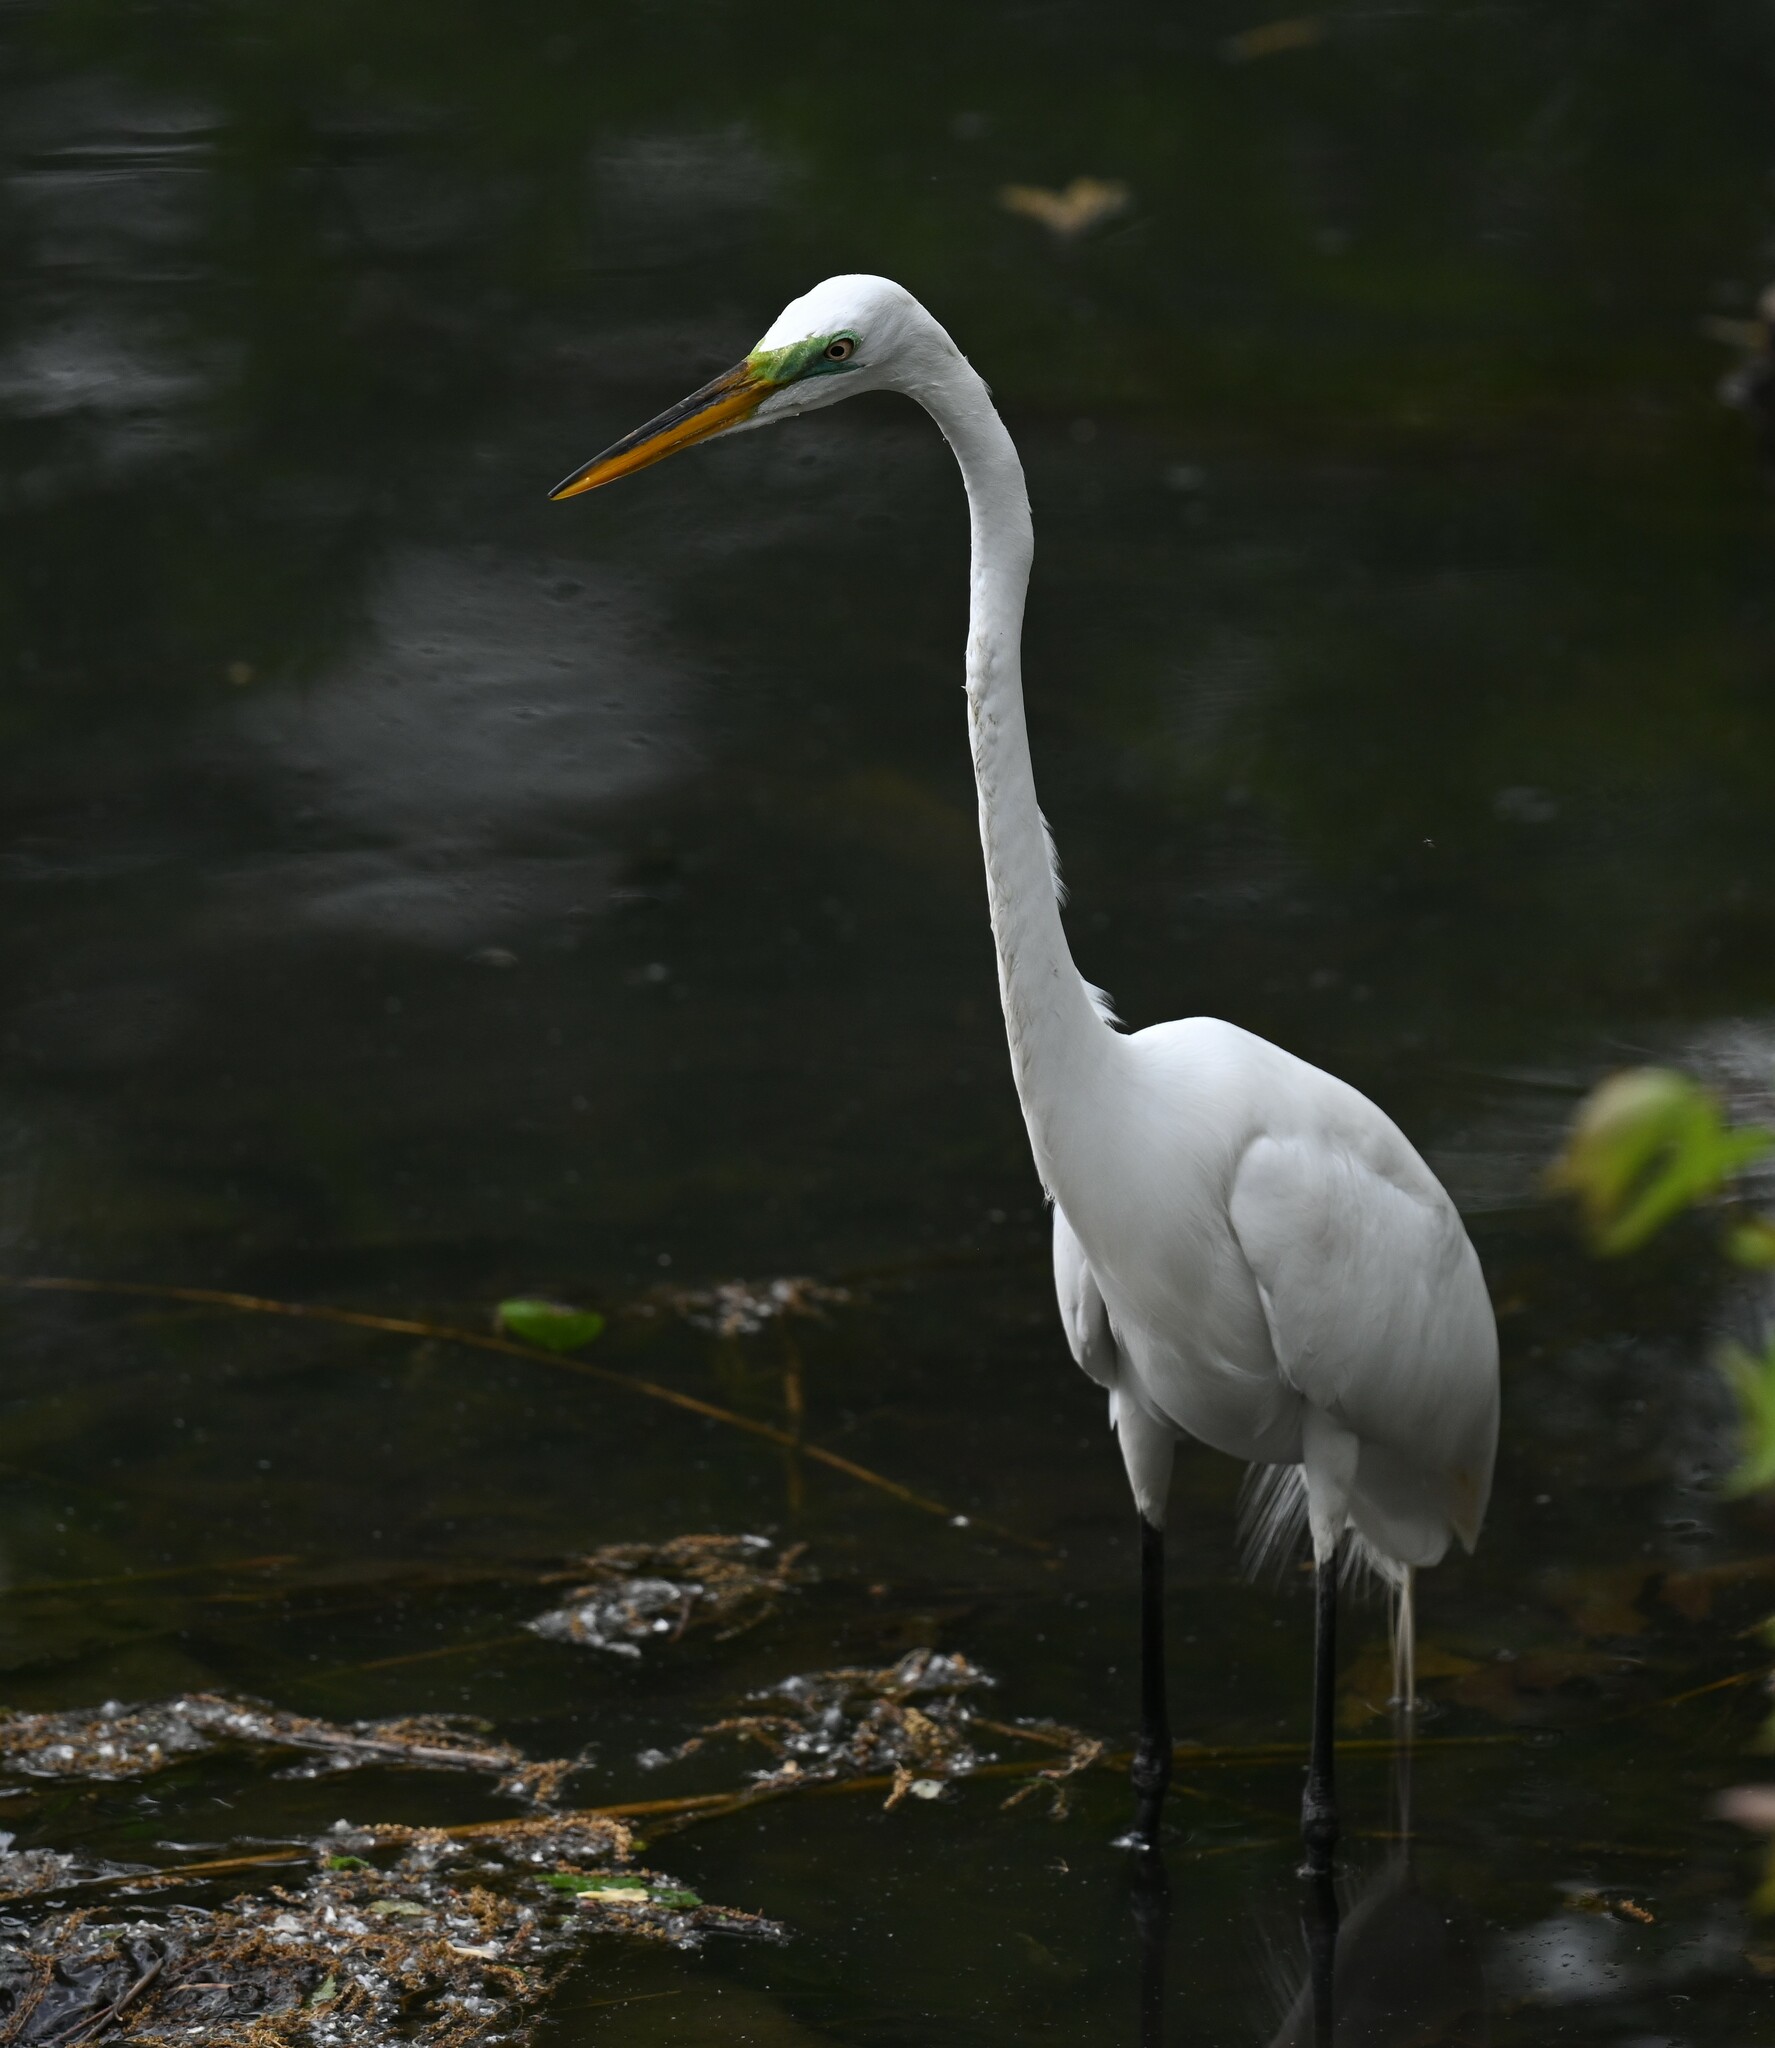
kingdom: Animalia
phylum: Chordata
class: Aves
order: Pelecaniformes
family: Ardeidae
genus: Ardea
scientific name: Ardea alba
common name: Great egret
